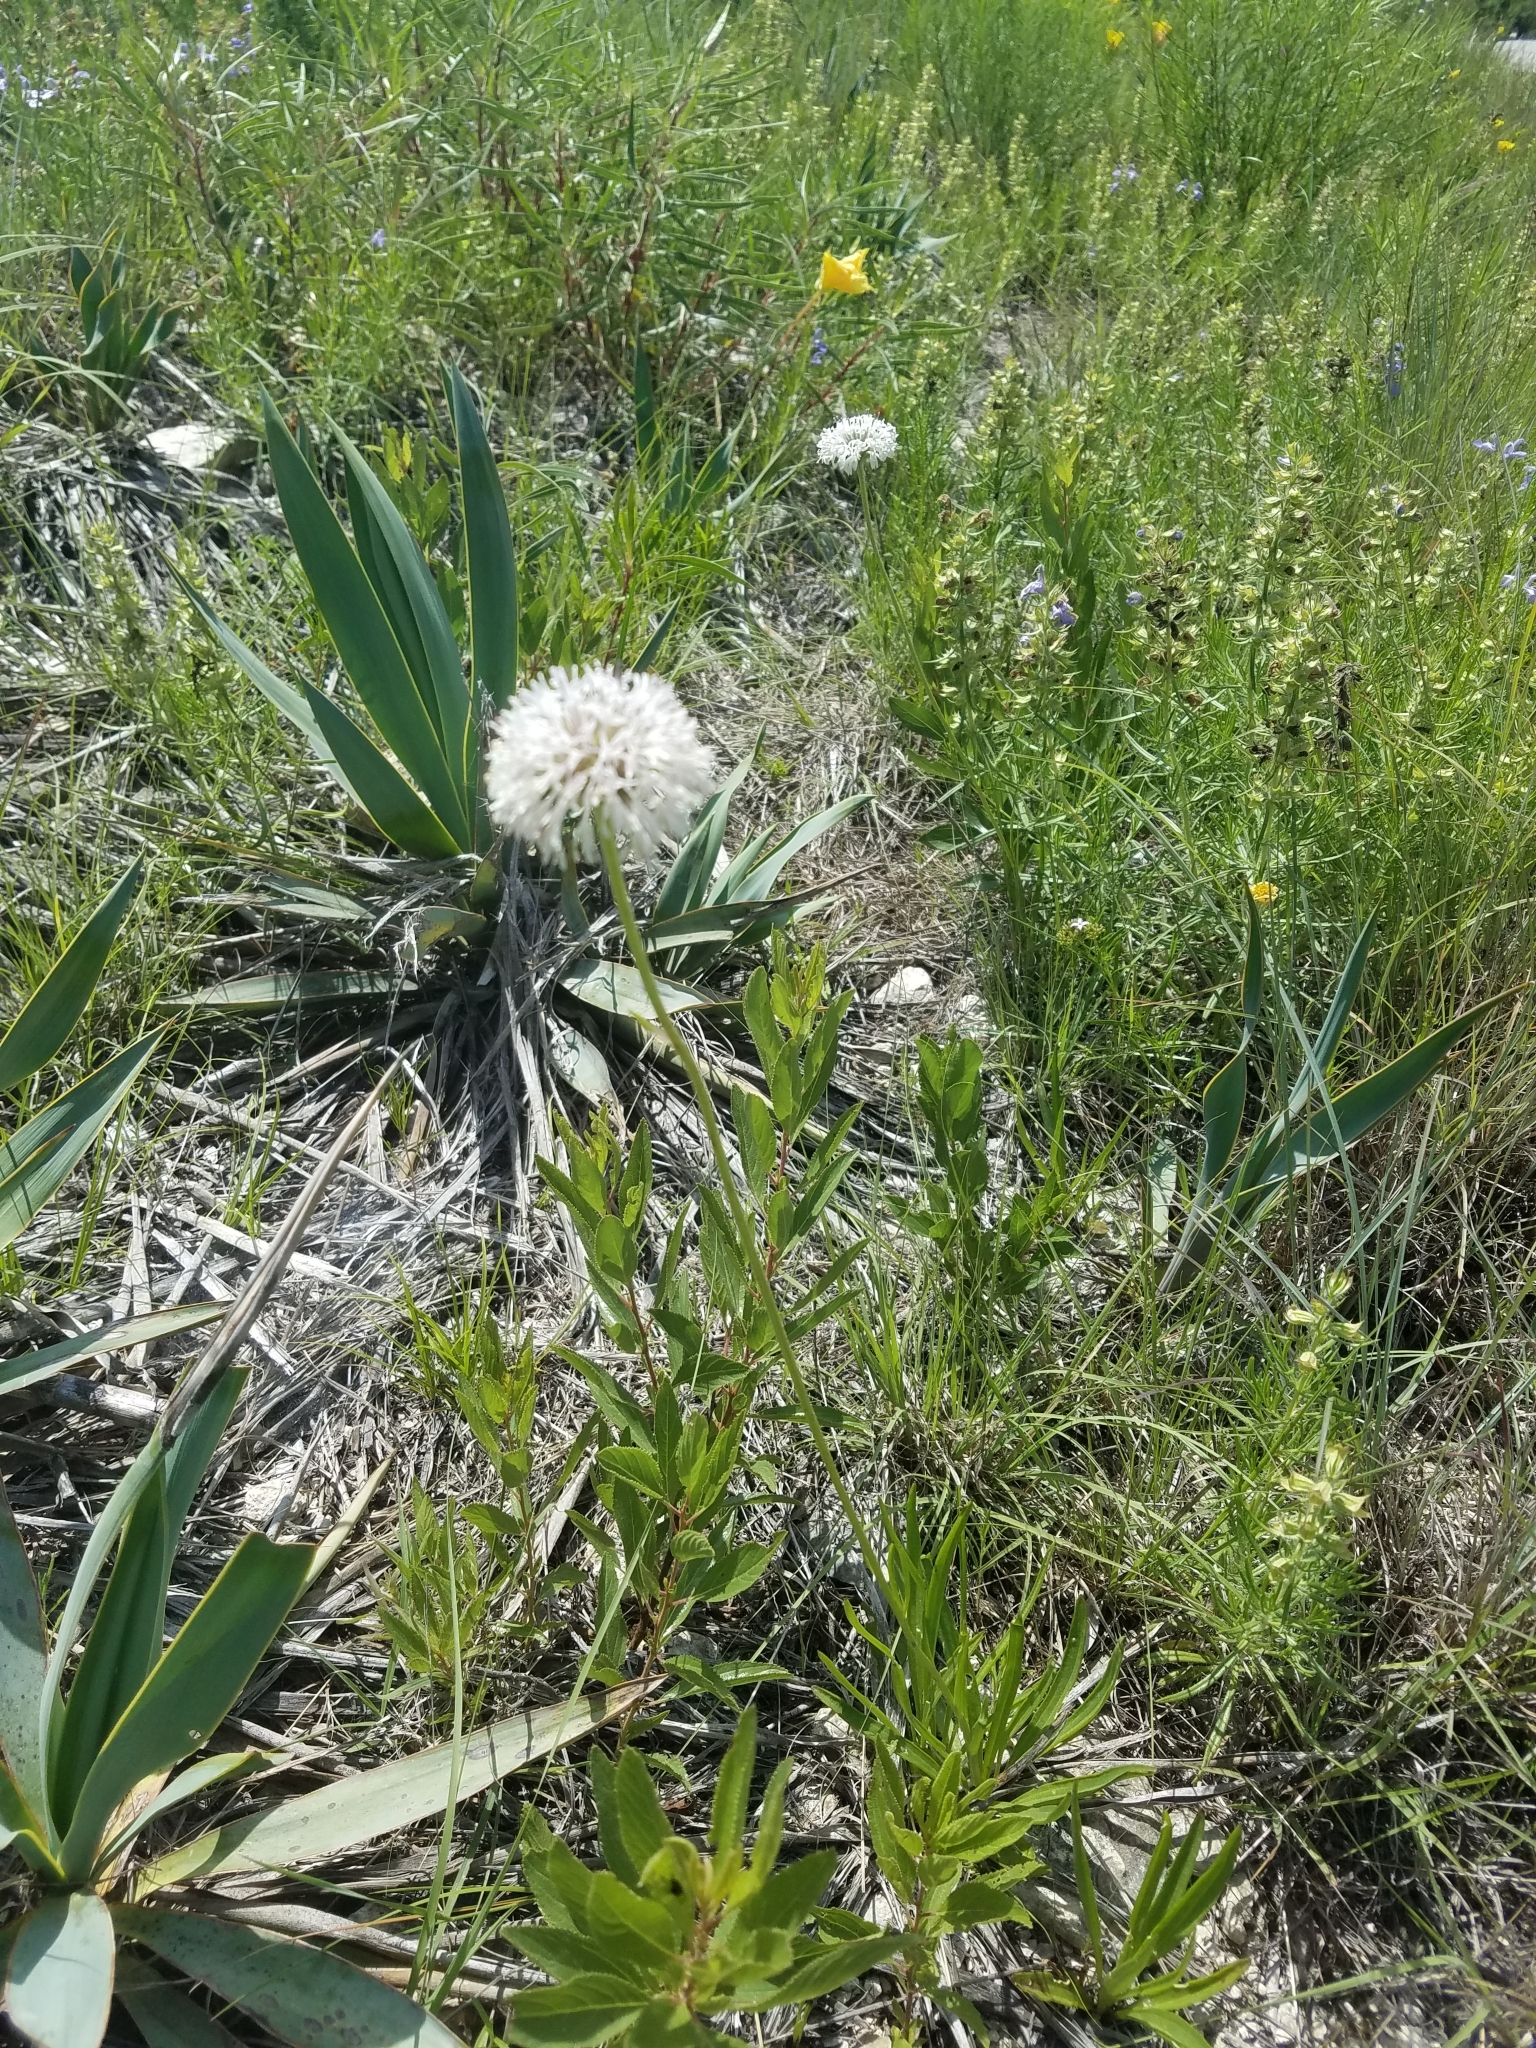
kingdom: Plantae
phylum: Tracheophyta
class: Magnoliopsida
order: Asterales
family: Asteraceae
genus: Marshallia
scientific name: Marshallia caespitosa
